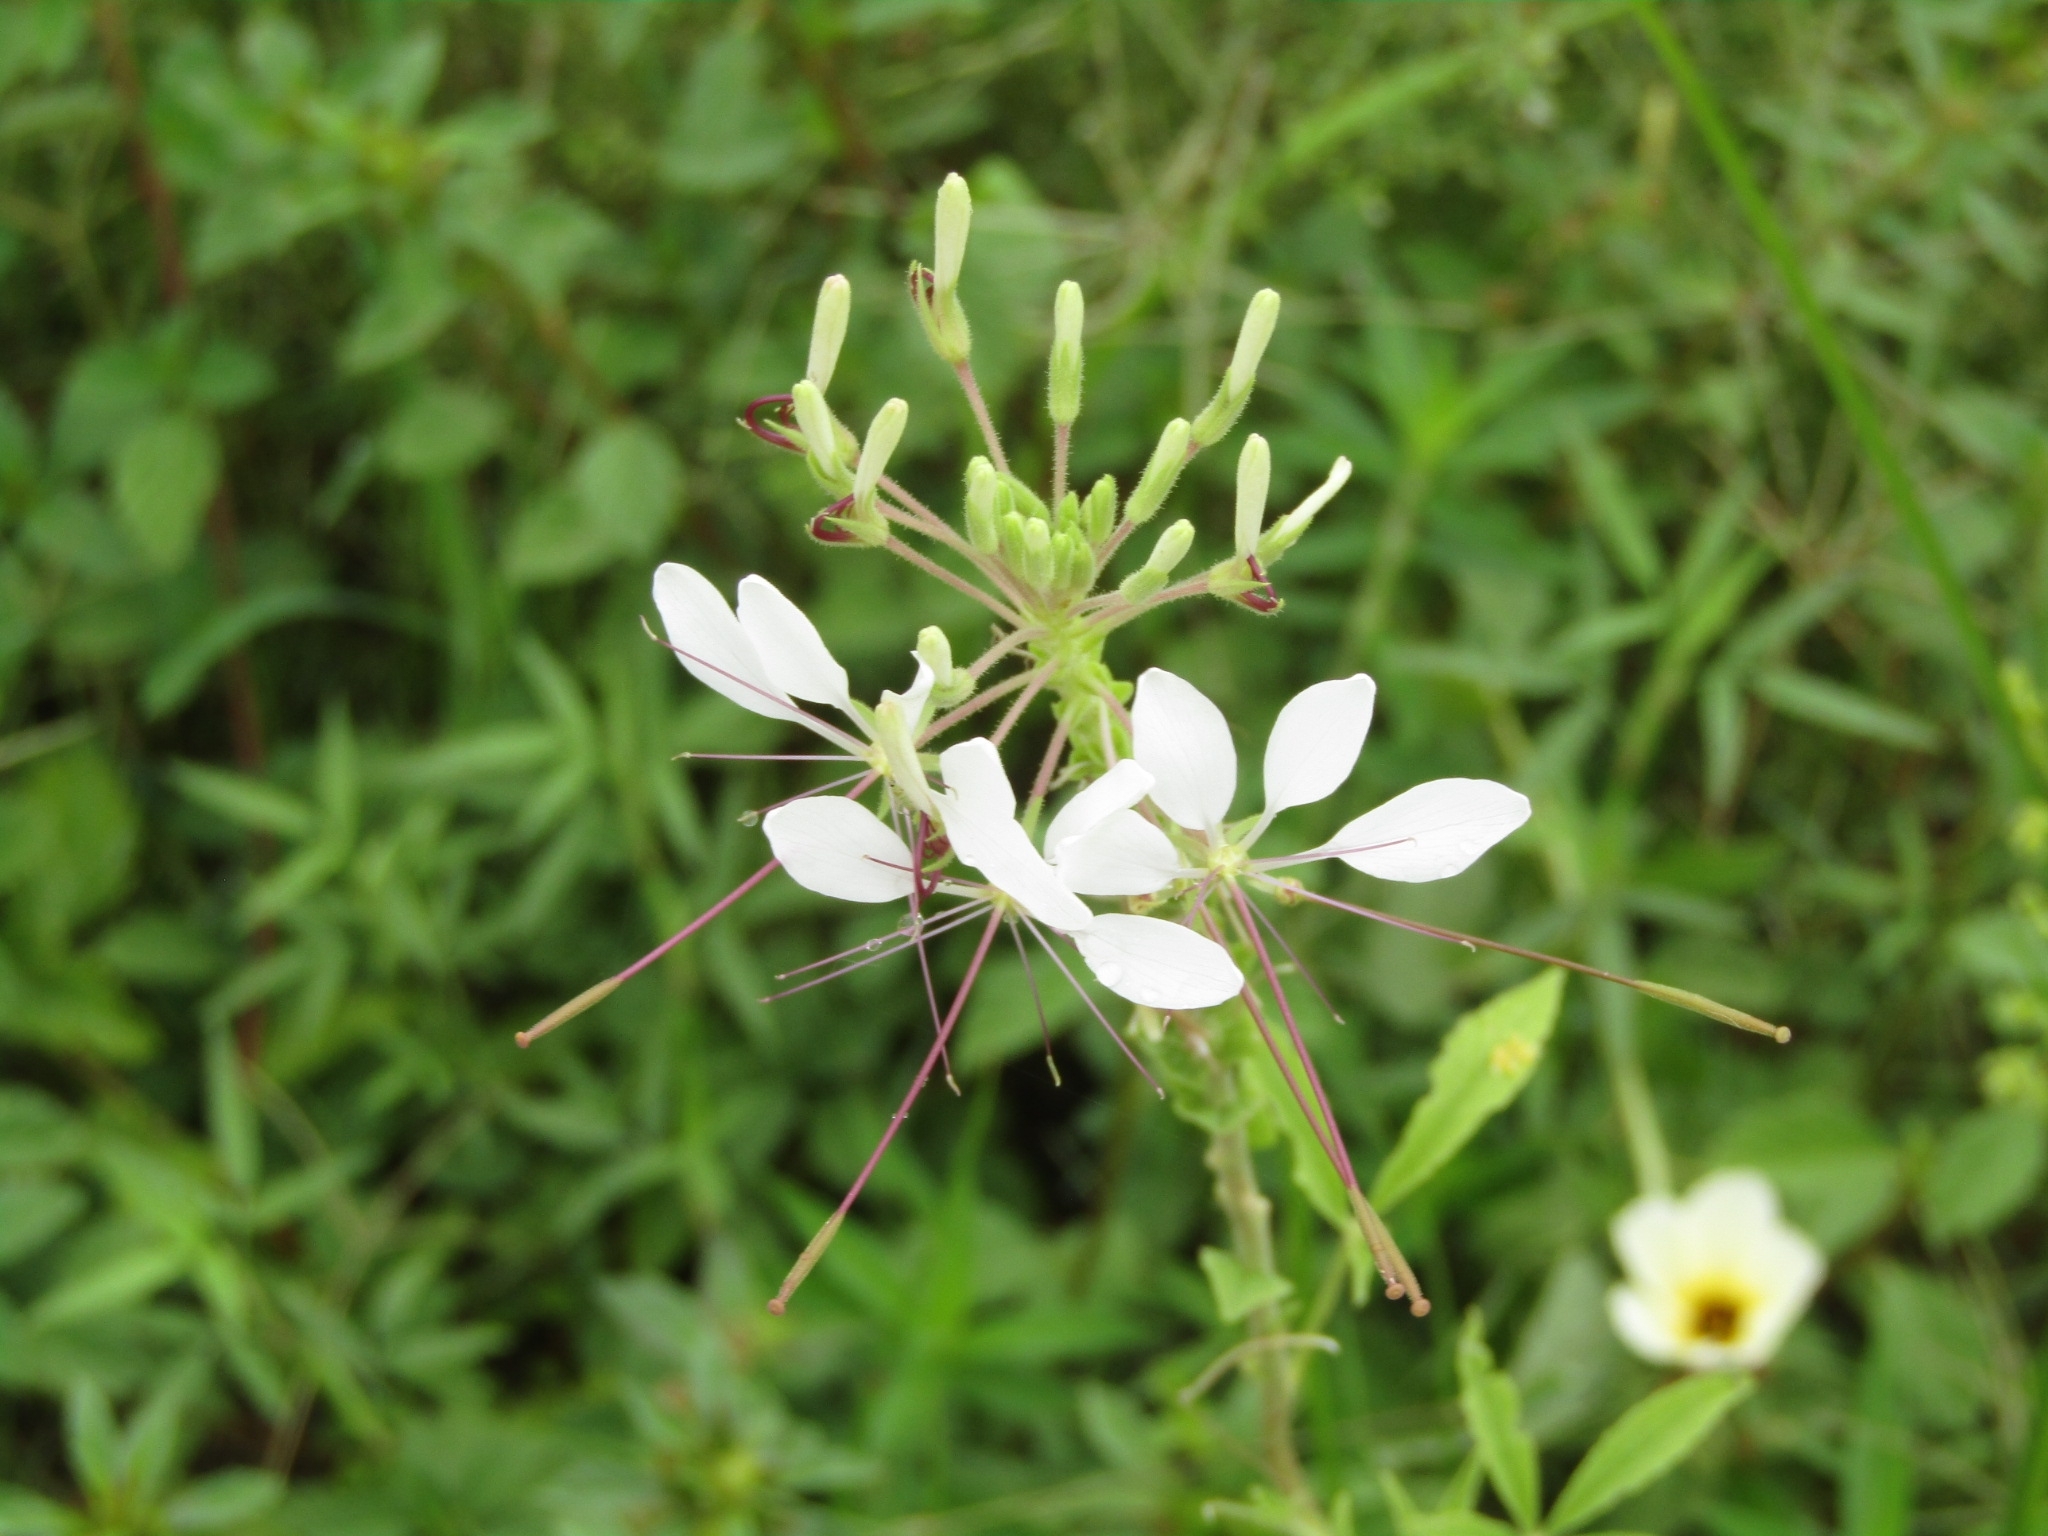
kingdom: Plantae
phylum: Tracheophyta
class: Magnoliopsida
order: Brassicales
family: Cleomaceae
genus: Tarenaya
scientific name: Tarenaya longicarpa
